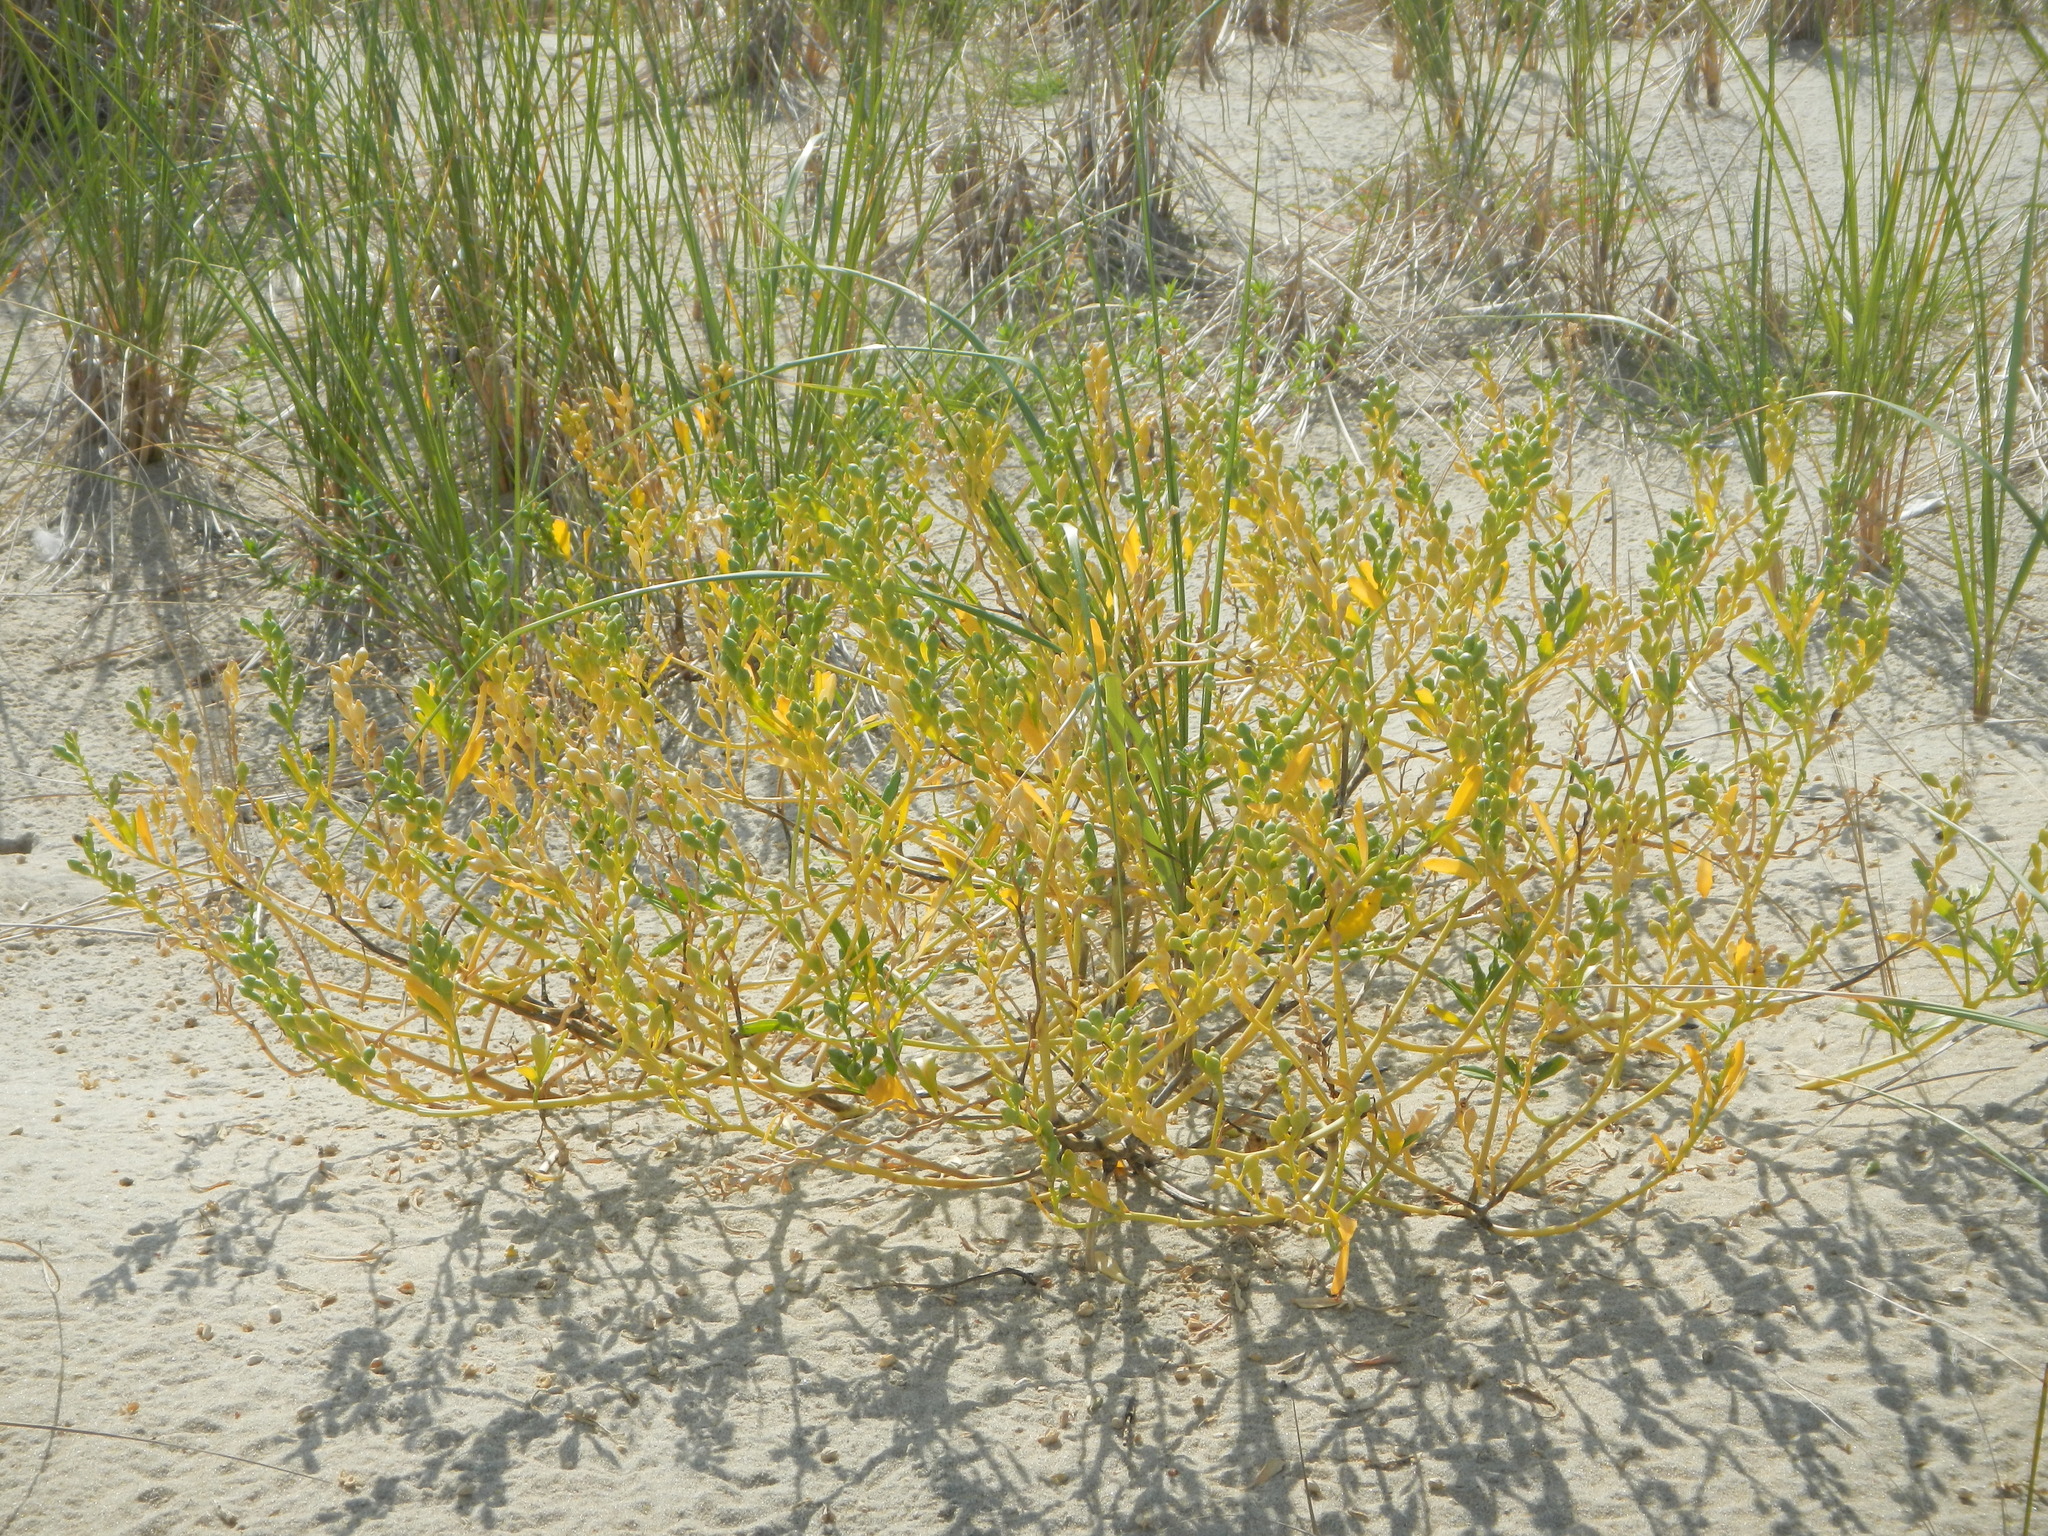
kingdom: Plantae
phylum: Tracheophyta
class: Magnoliopsida
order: Brassicales
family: Brassicaceae
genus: Cakile
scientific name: Cakile edentula
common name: American sea rocket
